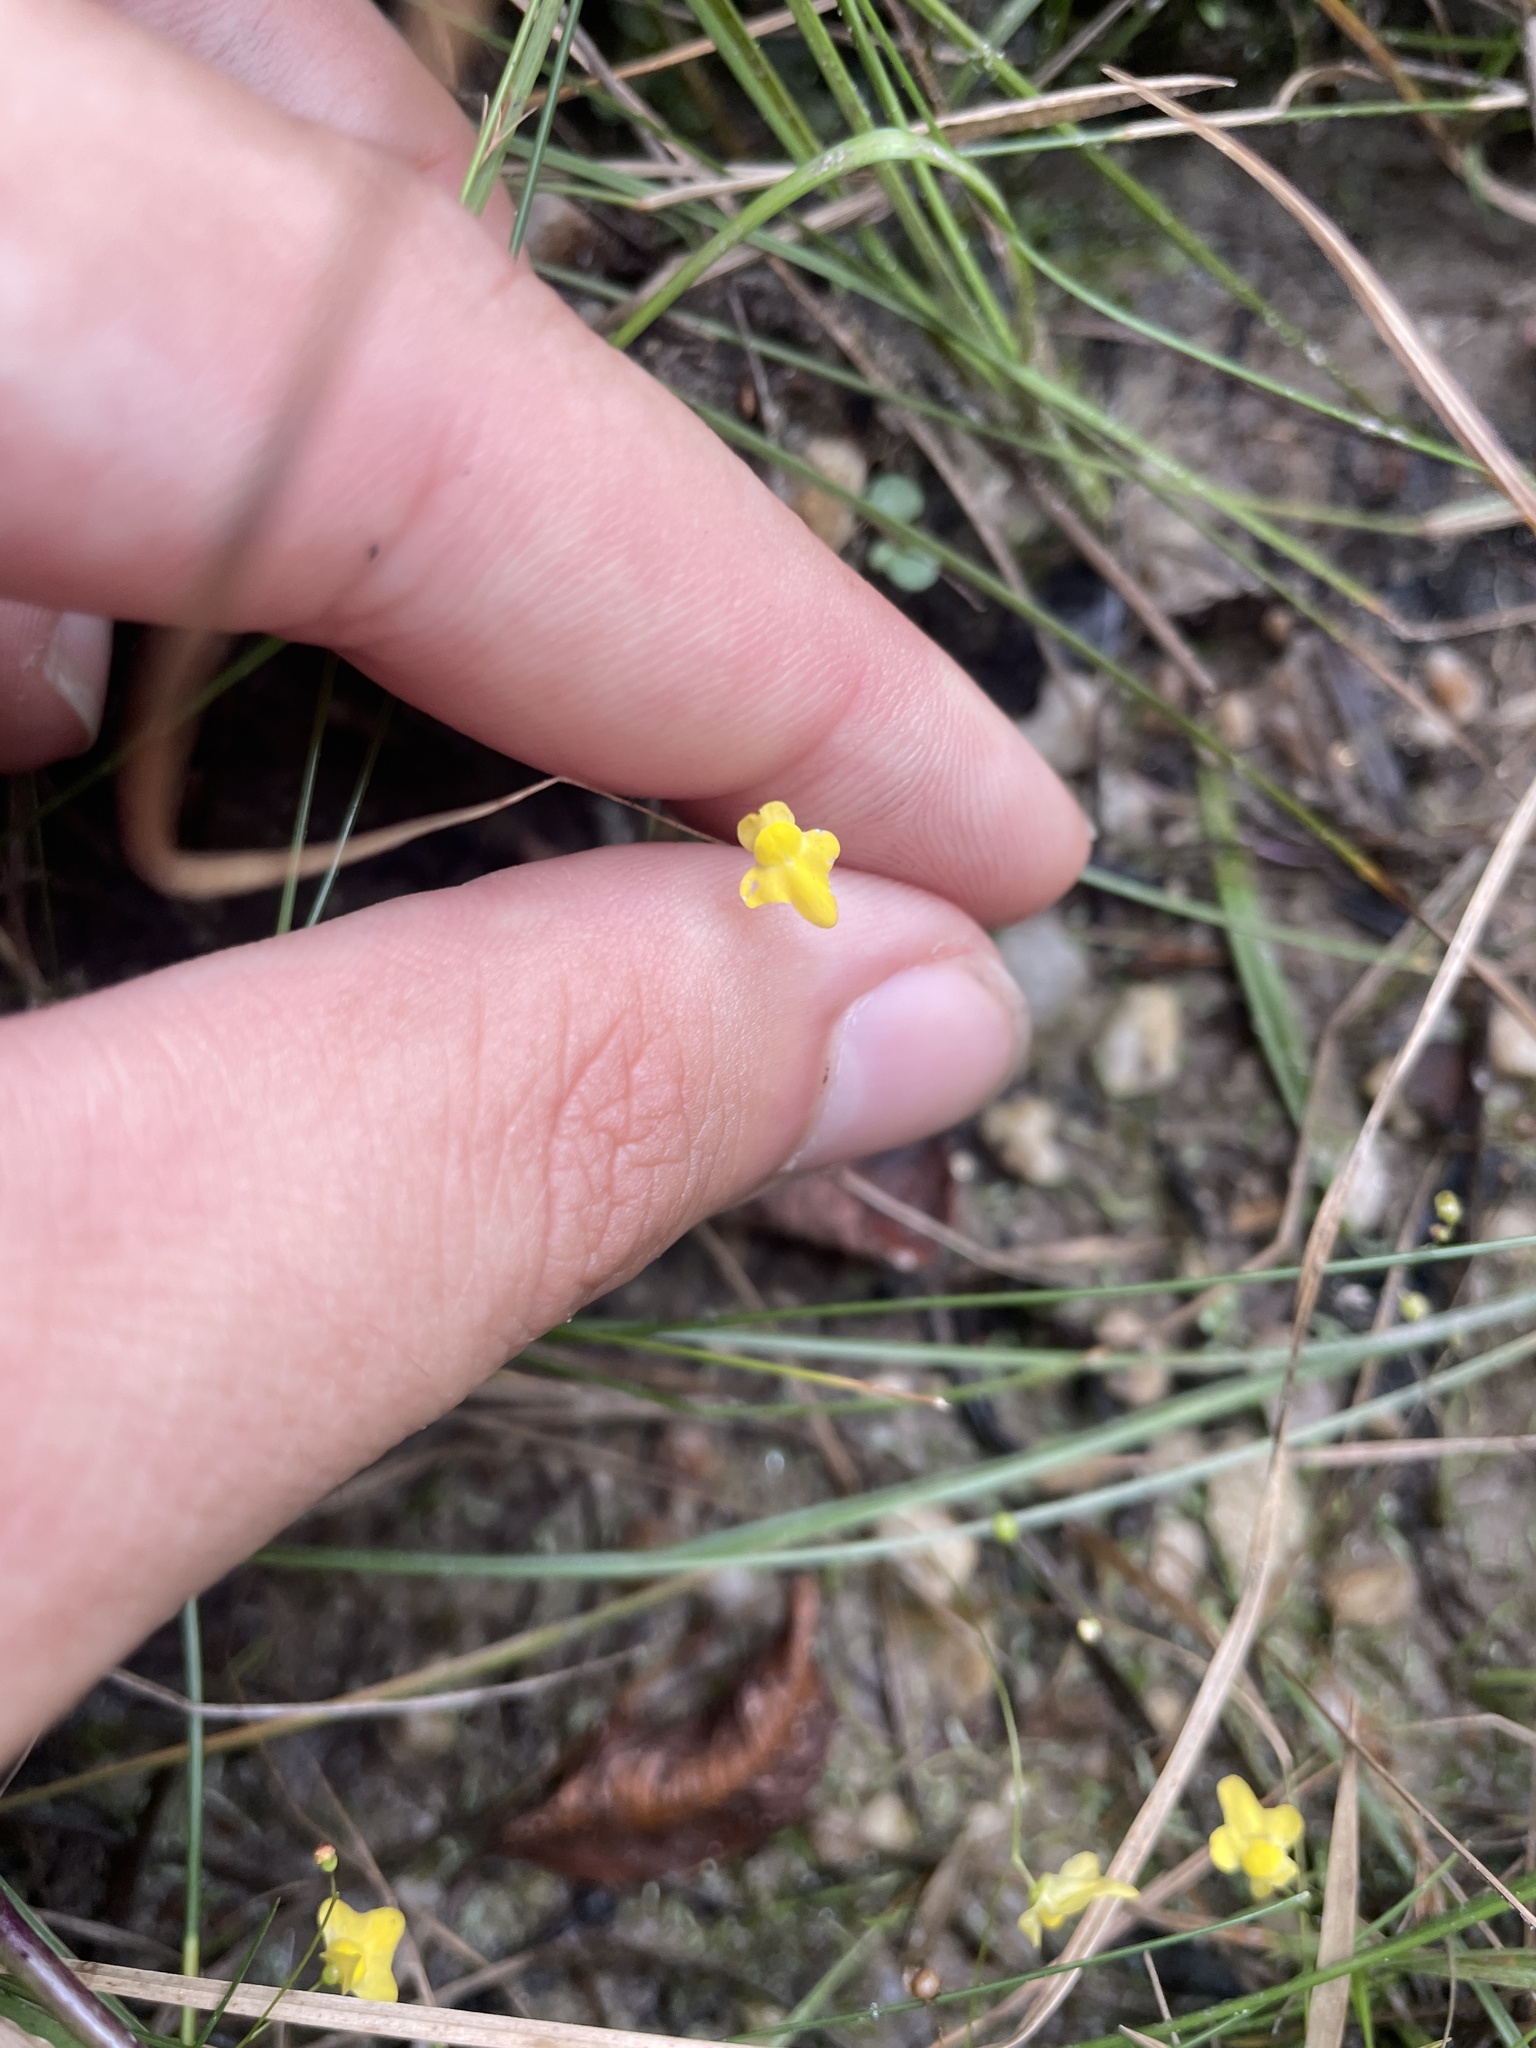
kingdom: Plantae
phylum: Tracheophyta
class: Magnoliopsida
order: Lamiales
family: Lentibulariaceae
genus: Utricularia
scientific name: Utricularia subulata
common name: Tiny bladderwort
